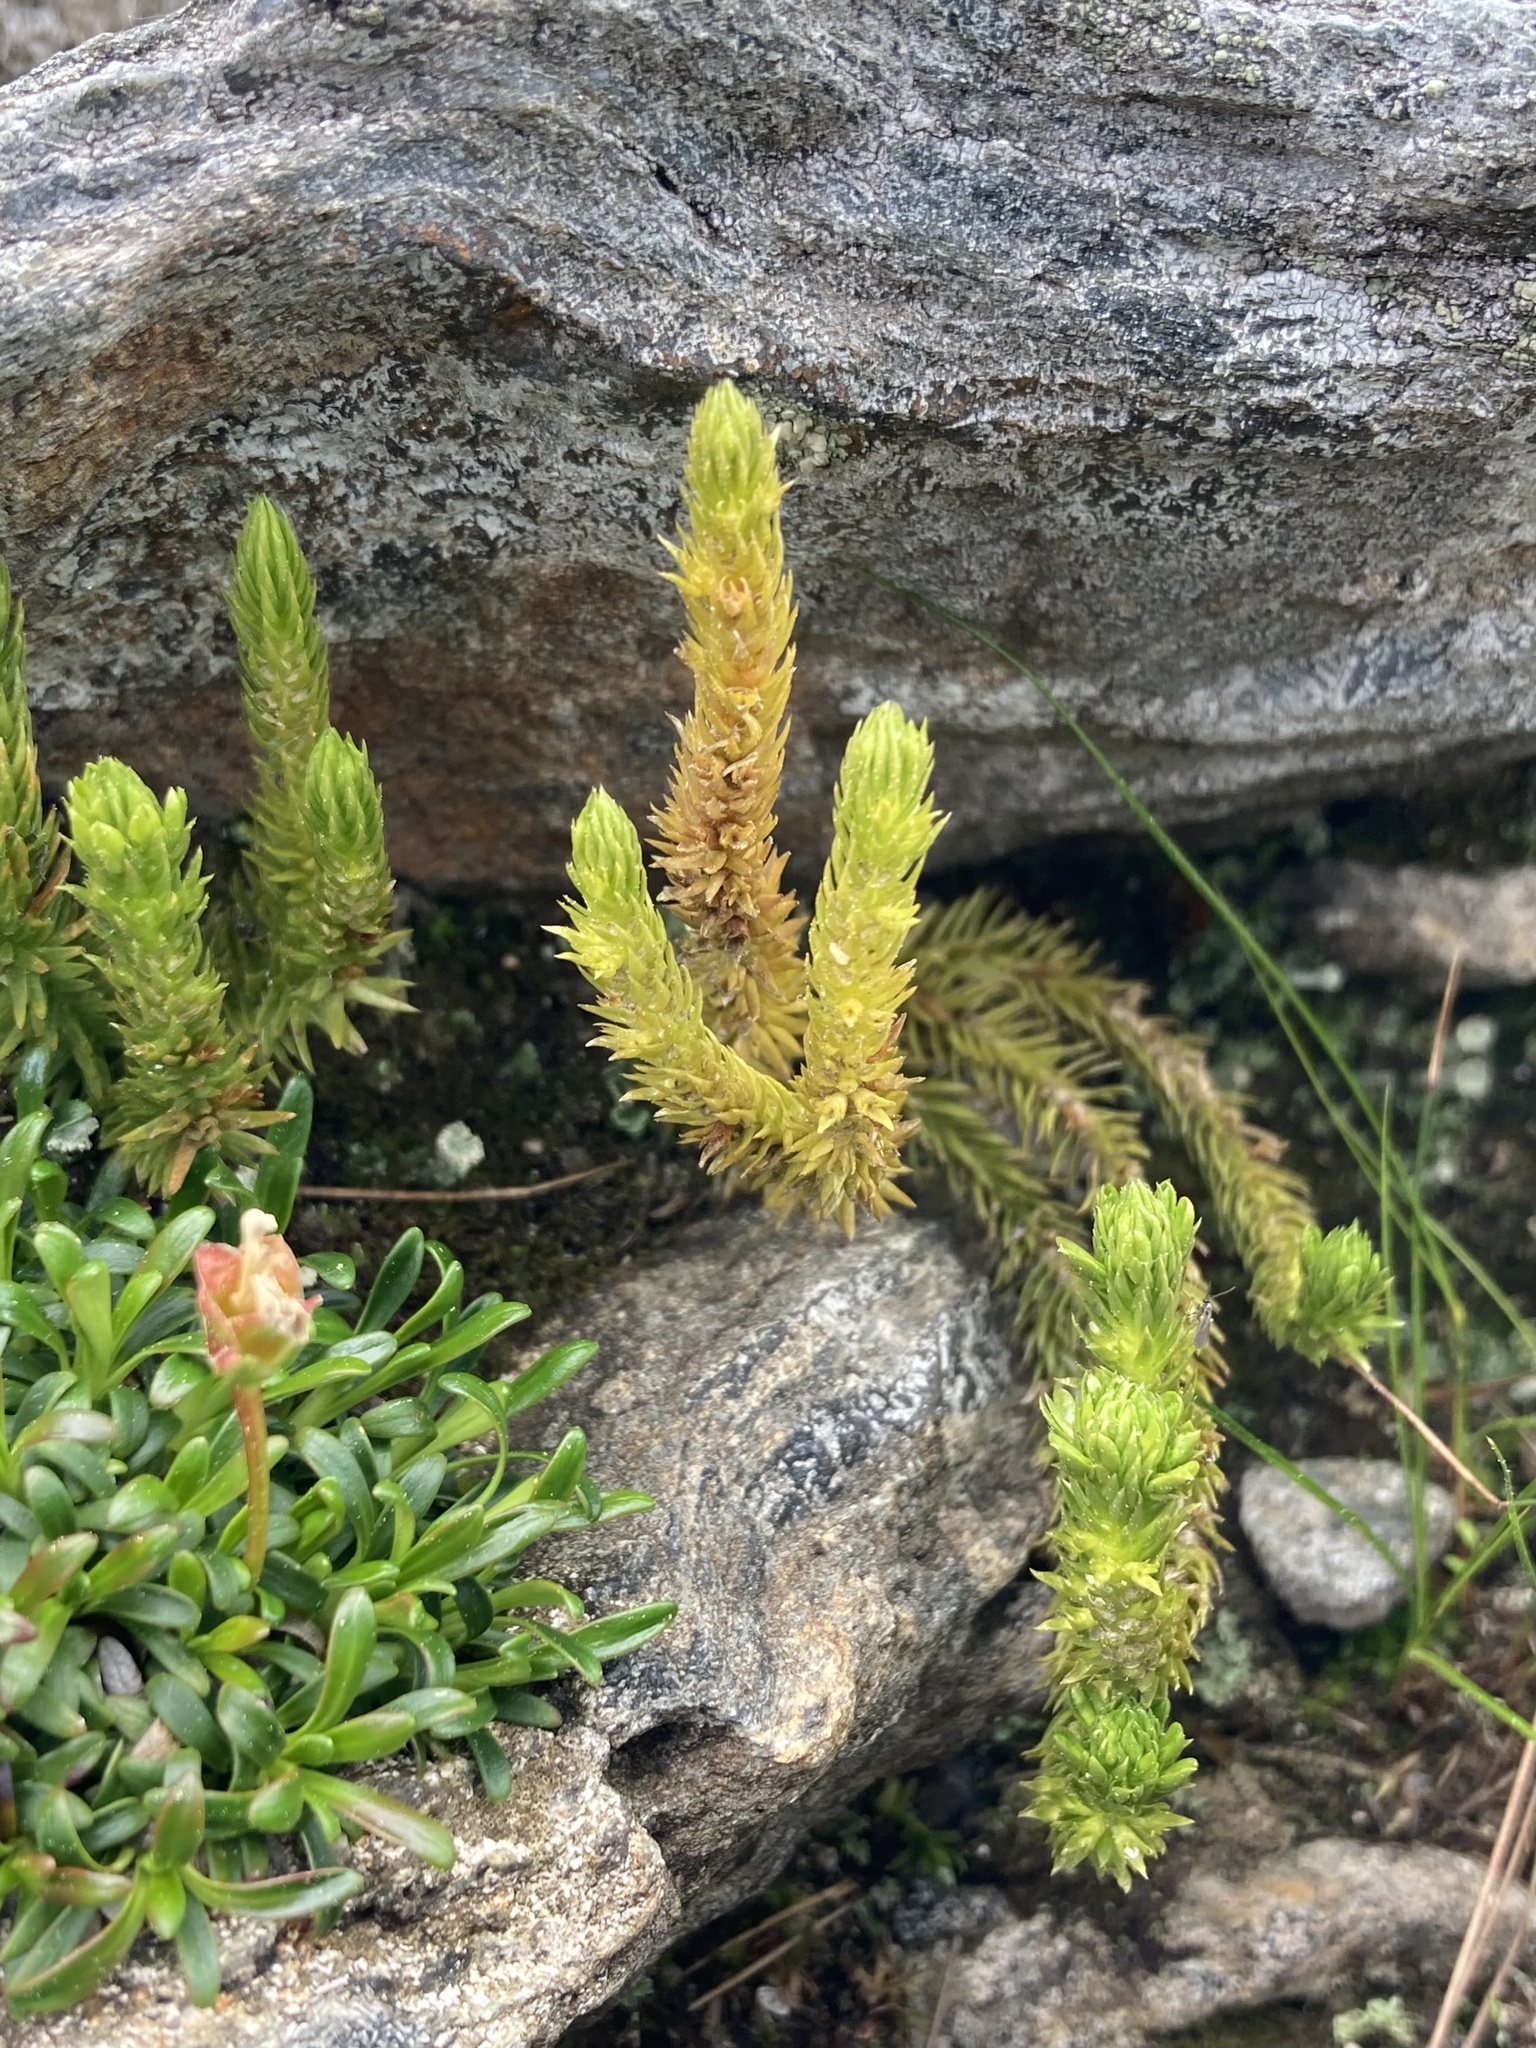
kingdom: Plantae
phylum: Tracheophyta
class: Lycopodiopsida
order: Lycopodiales
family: Lycopodiaceae
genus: Huperzia
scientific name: Huperzia selago
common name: Northern firmoss
